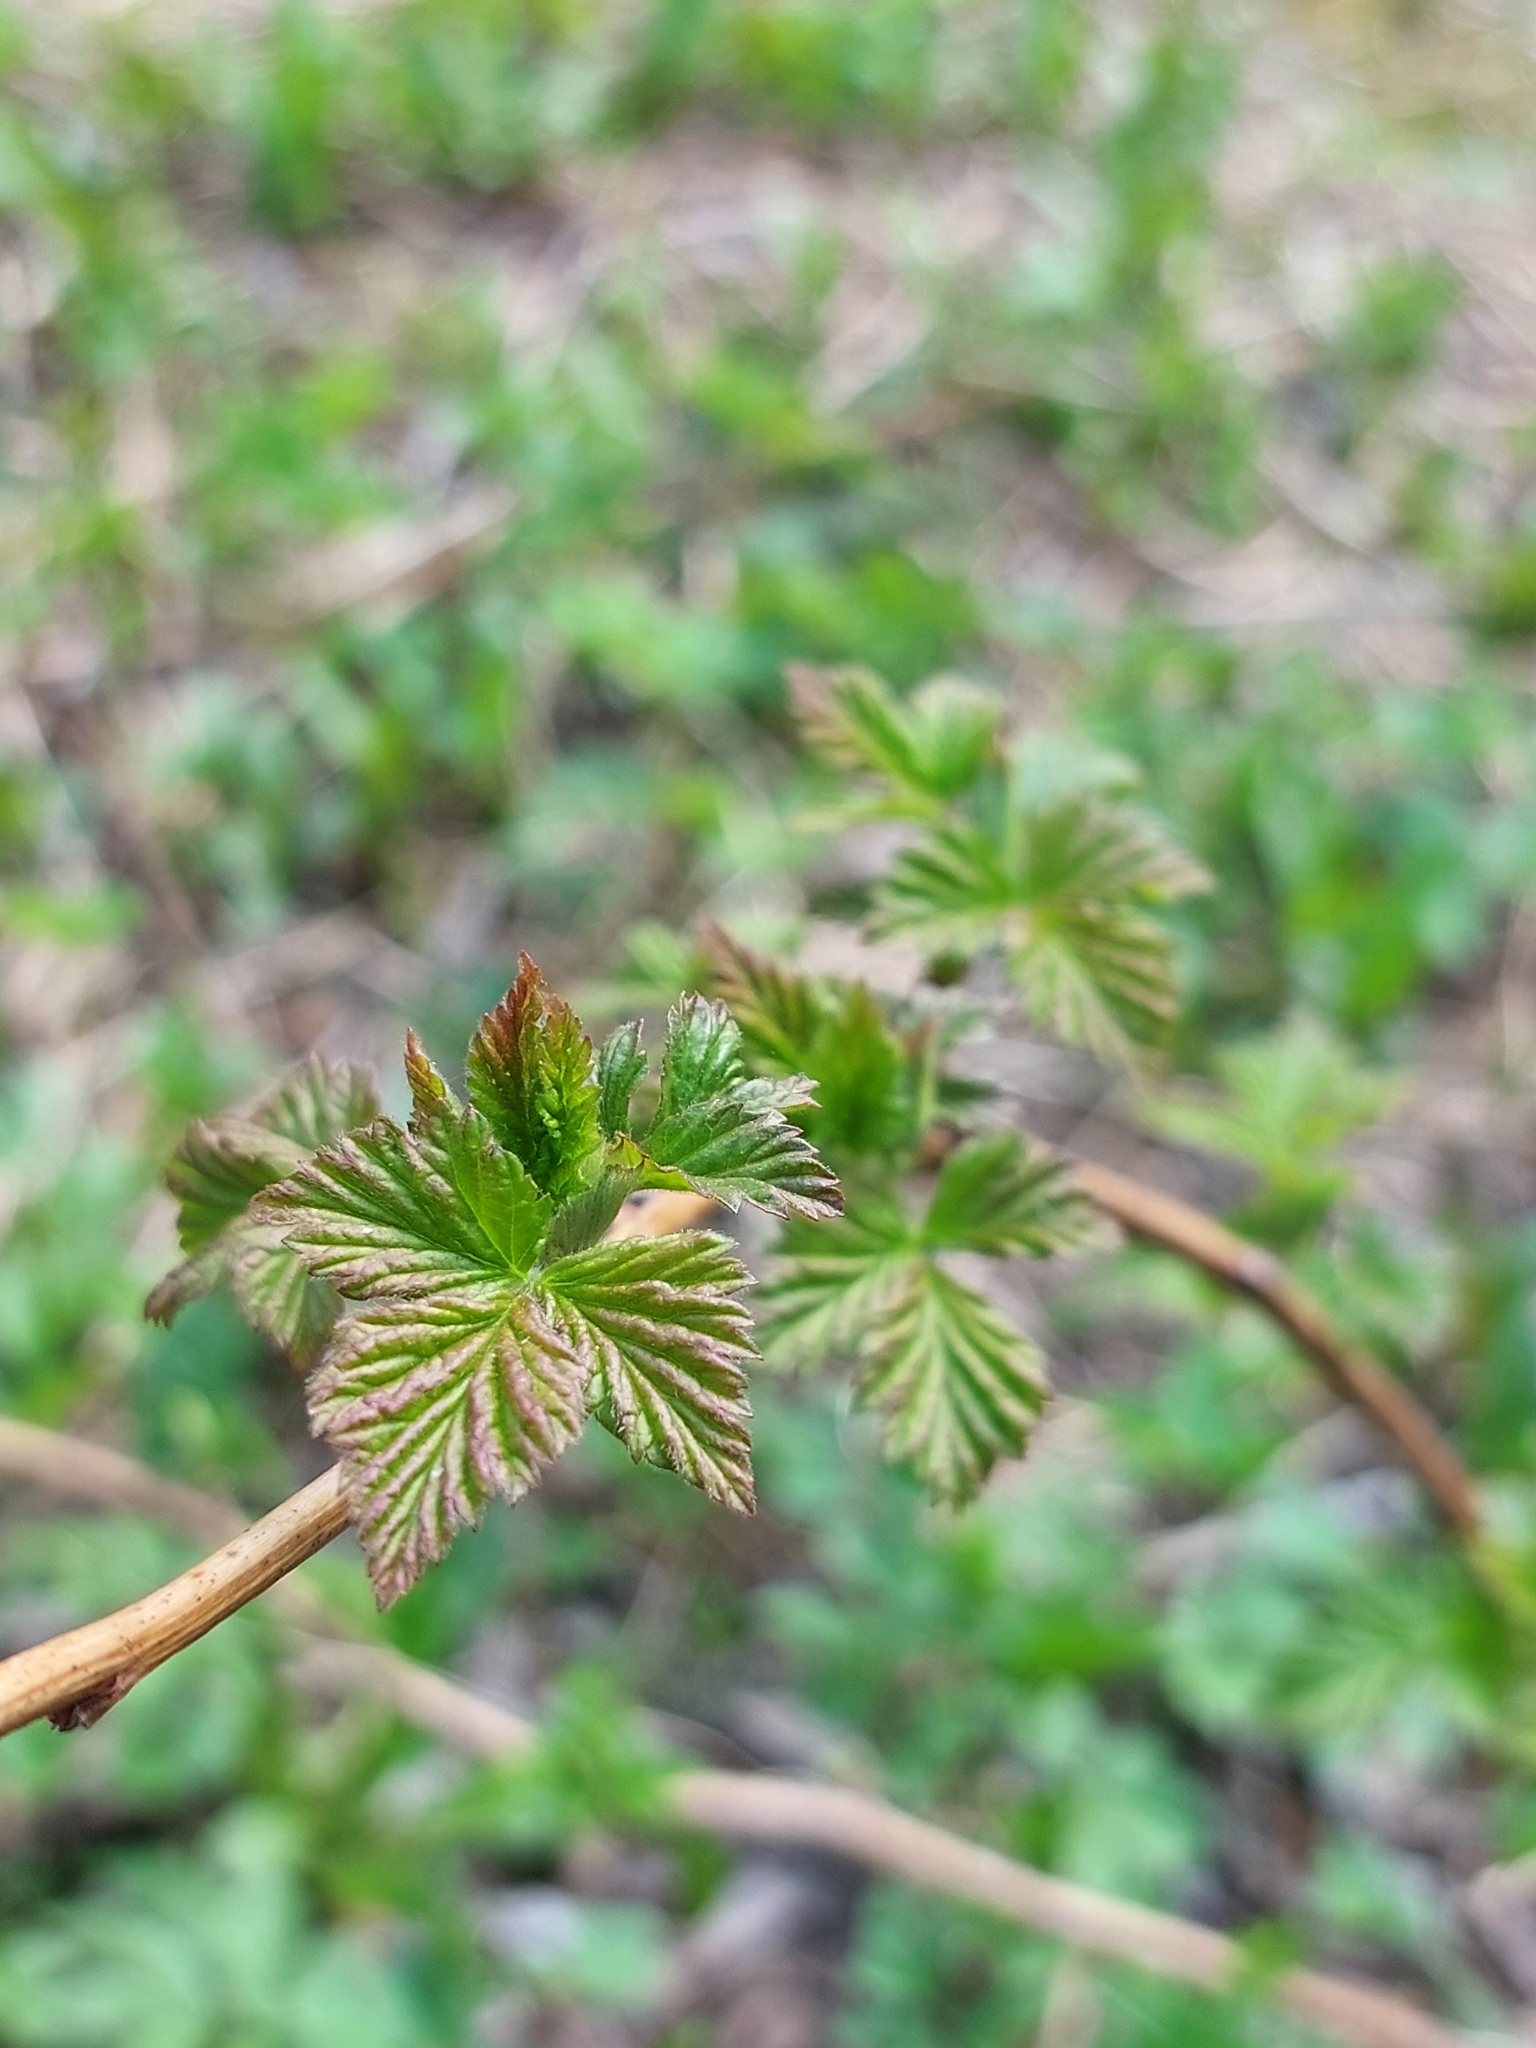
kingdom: Plantae
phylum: Tracheophyta
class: Magnoliopsida
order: Rosales
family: Rosaceae
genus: Rubus
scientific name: Rubus idaeus
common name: Raspberry
